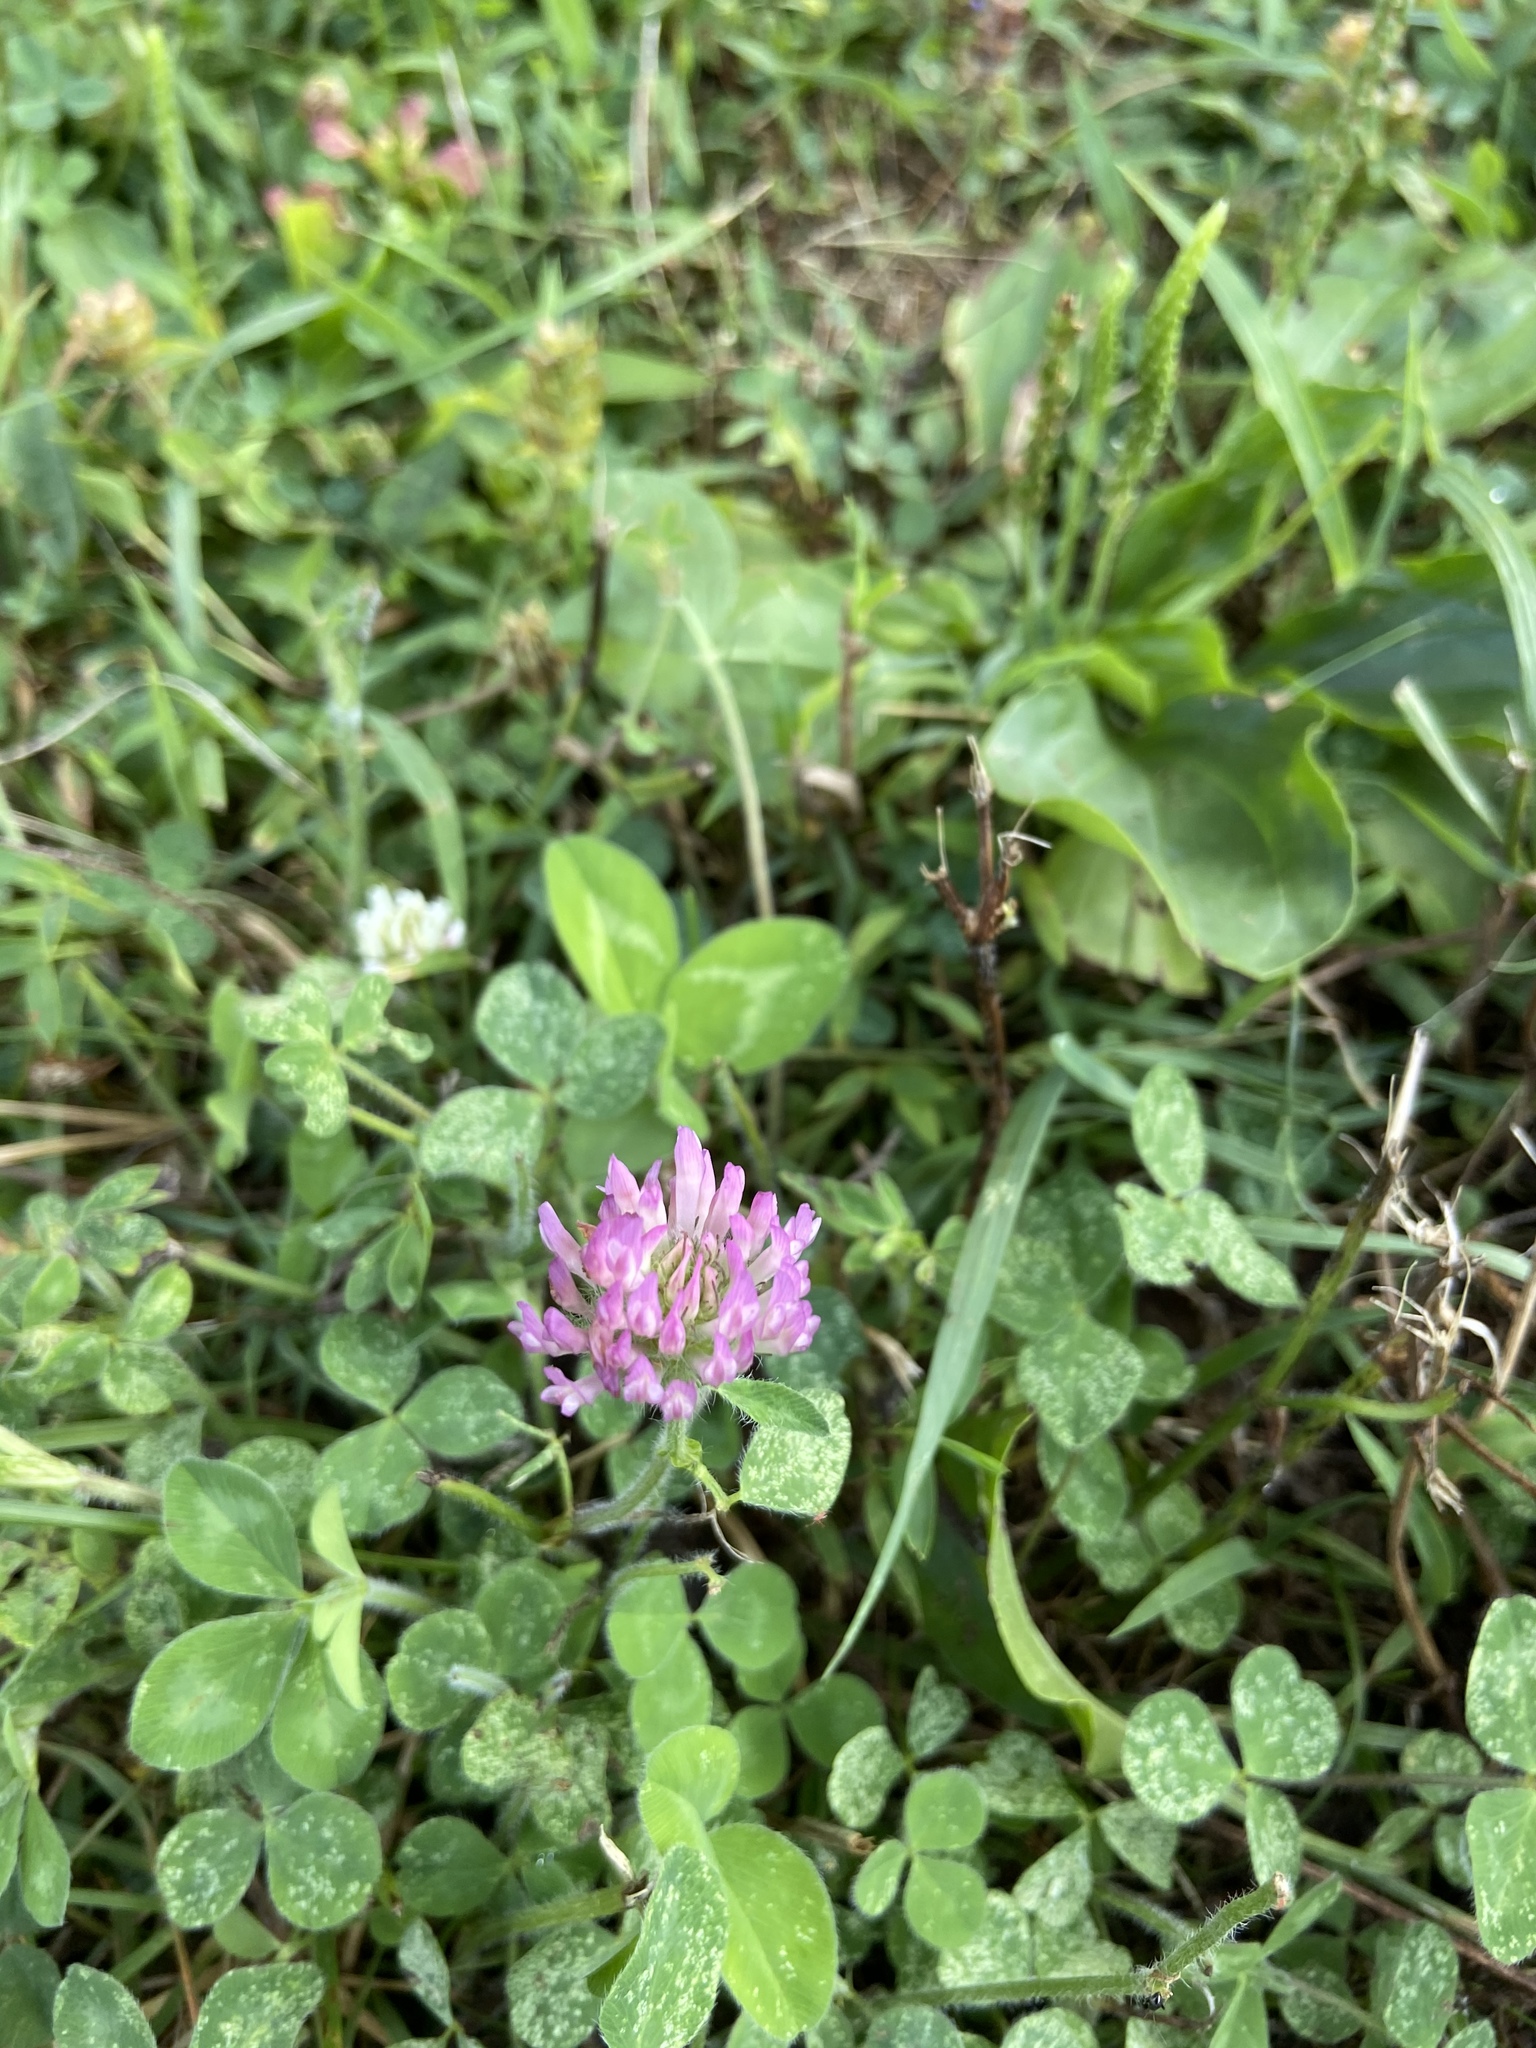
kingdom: Plantae
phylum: Tracheophyta
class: Magnoliopsida
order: Fabales
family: Fabaceae
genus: Trifolium
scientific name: Trifolium pratense
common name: Red clover
